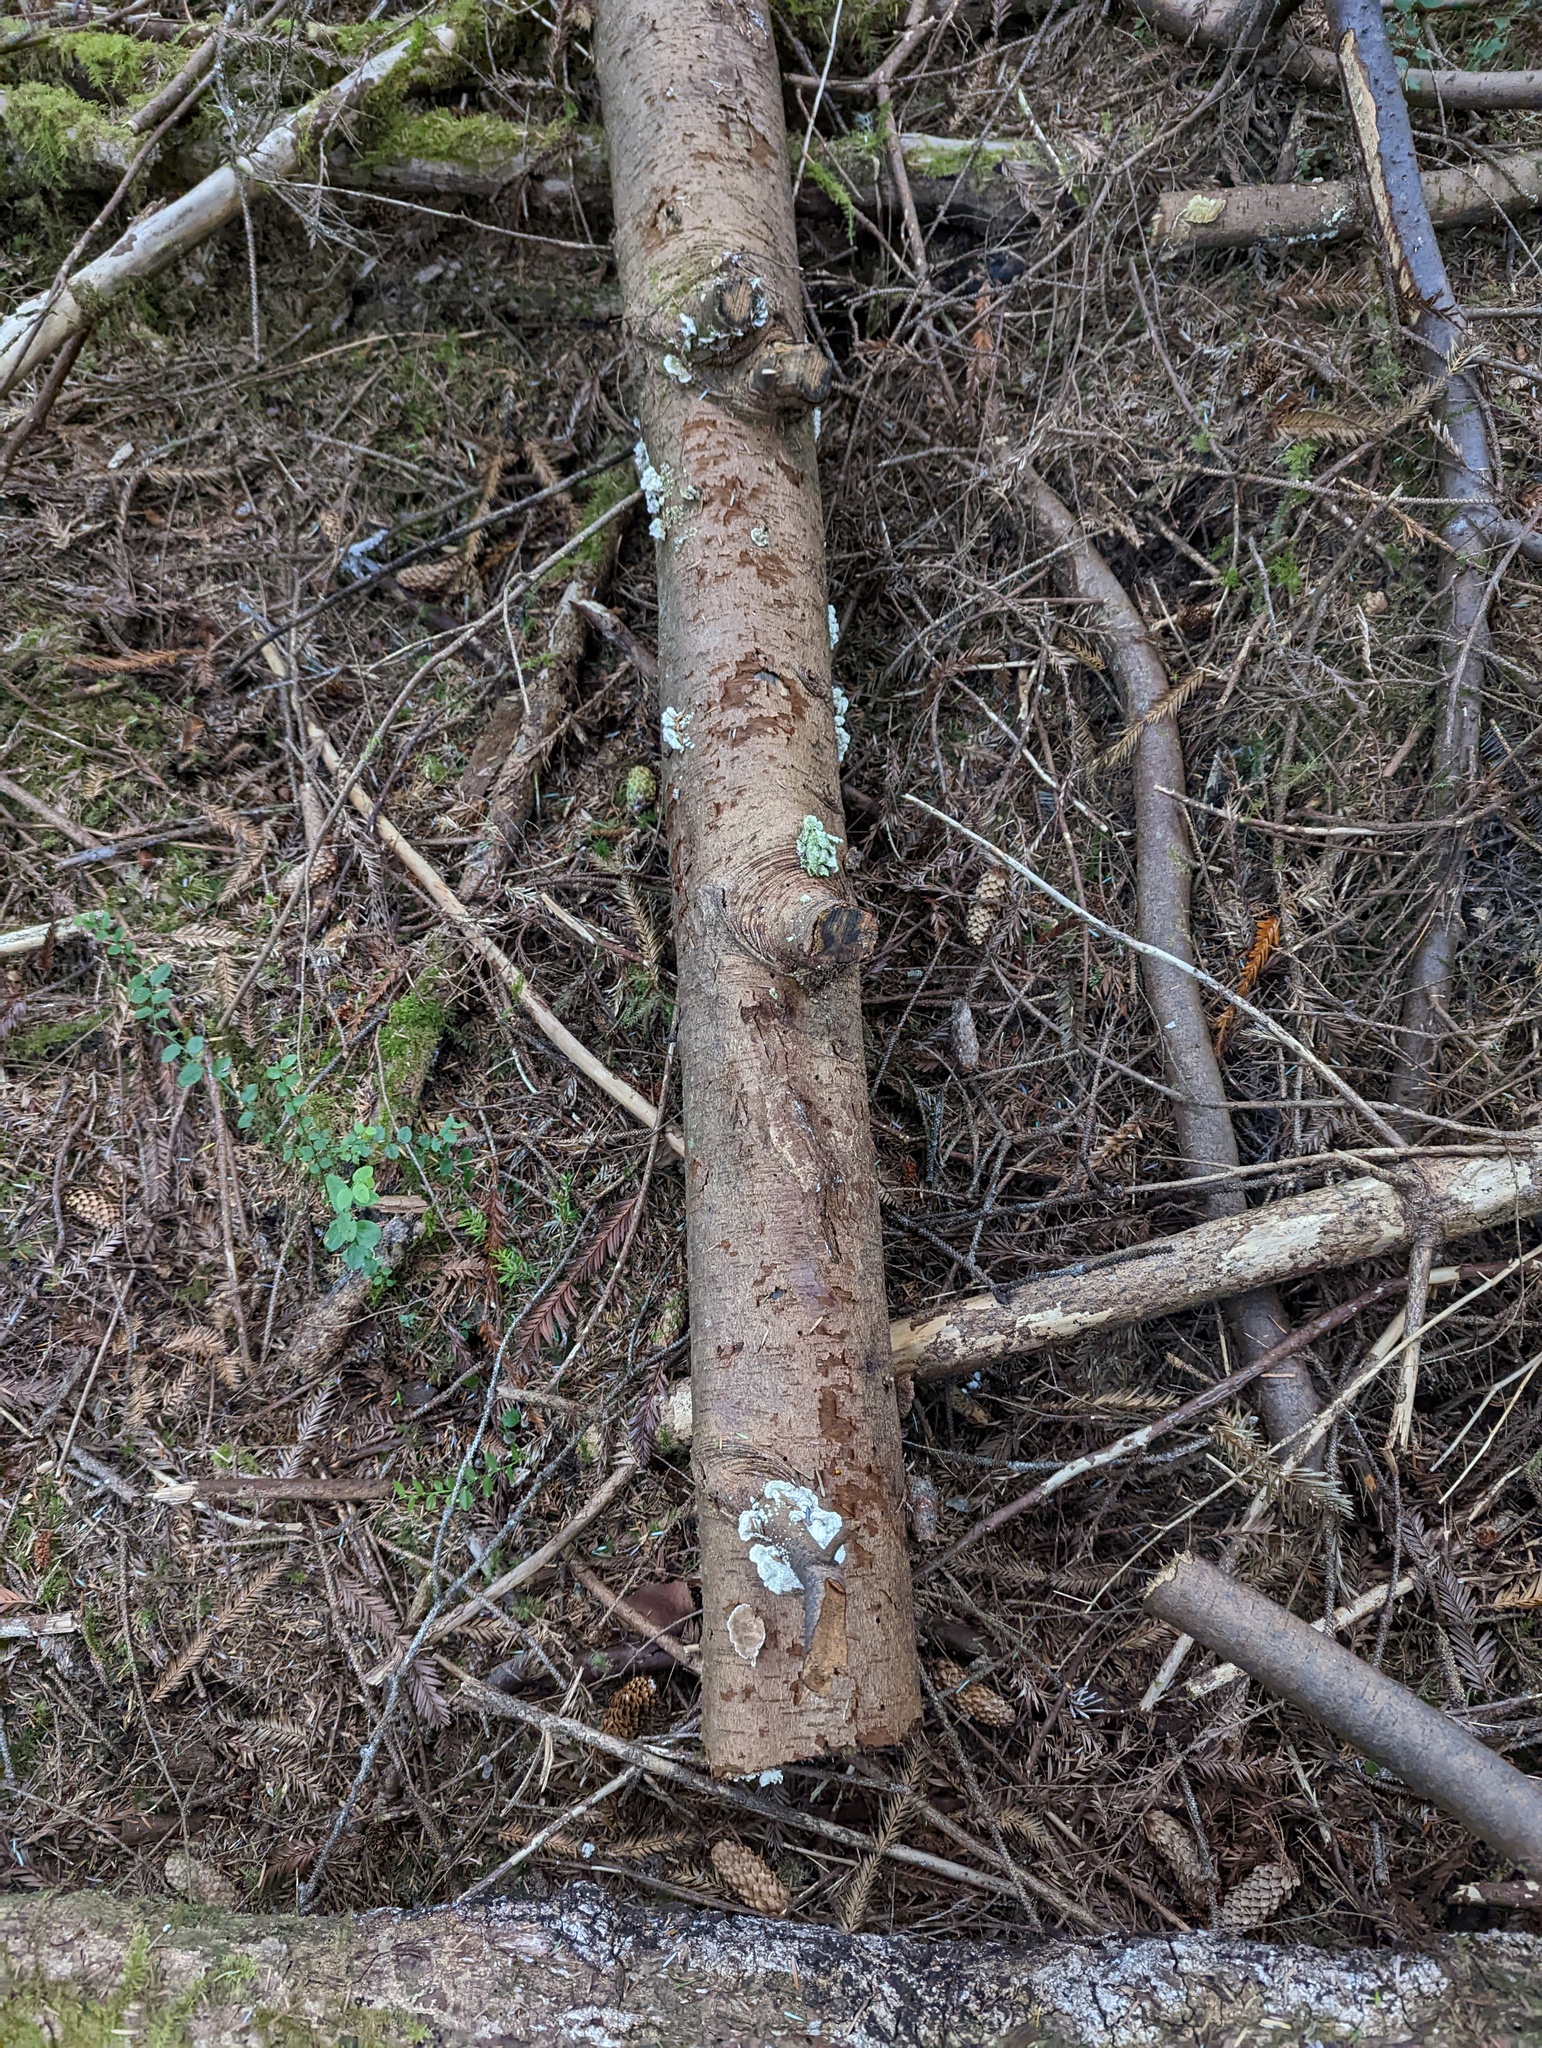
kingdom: Fungi
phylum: Basidiomycota
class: Agaricomycetes
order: Hymenochaetales
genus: Trichaptum
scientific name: Trichaptum abietinum
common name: Purplepore bracket
